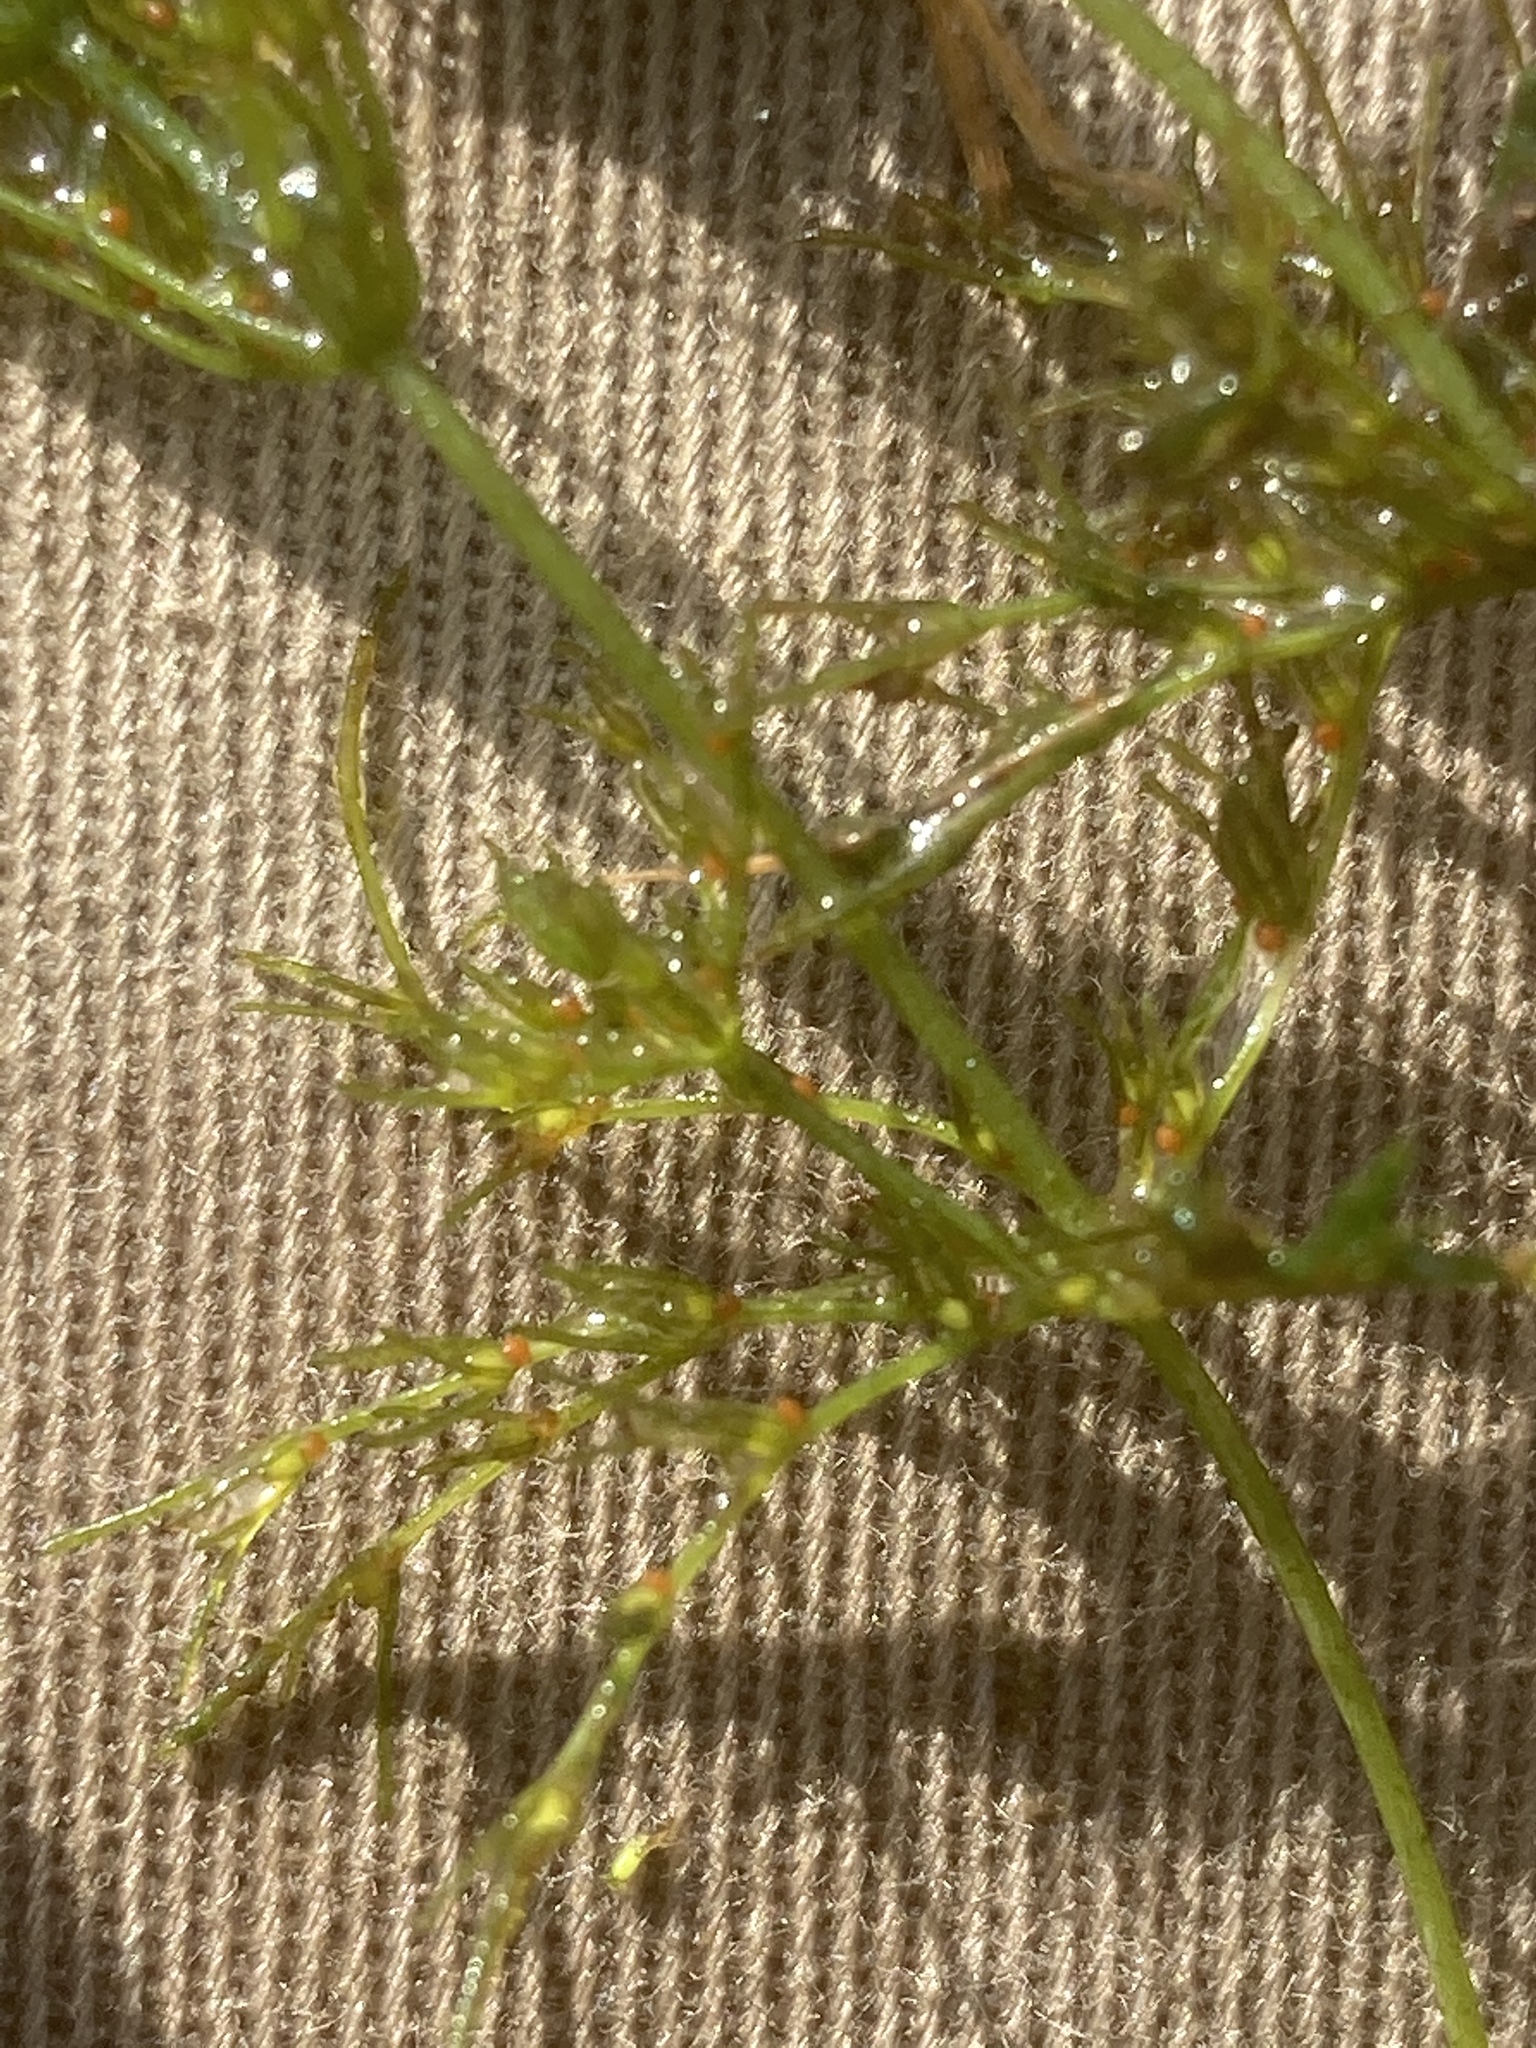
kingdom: Plantae
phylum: Charophyta
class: Charophyceae
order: Charales
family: Characeae
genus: Chara
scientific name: Chara vulgaris
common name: Common stonewort
